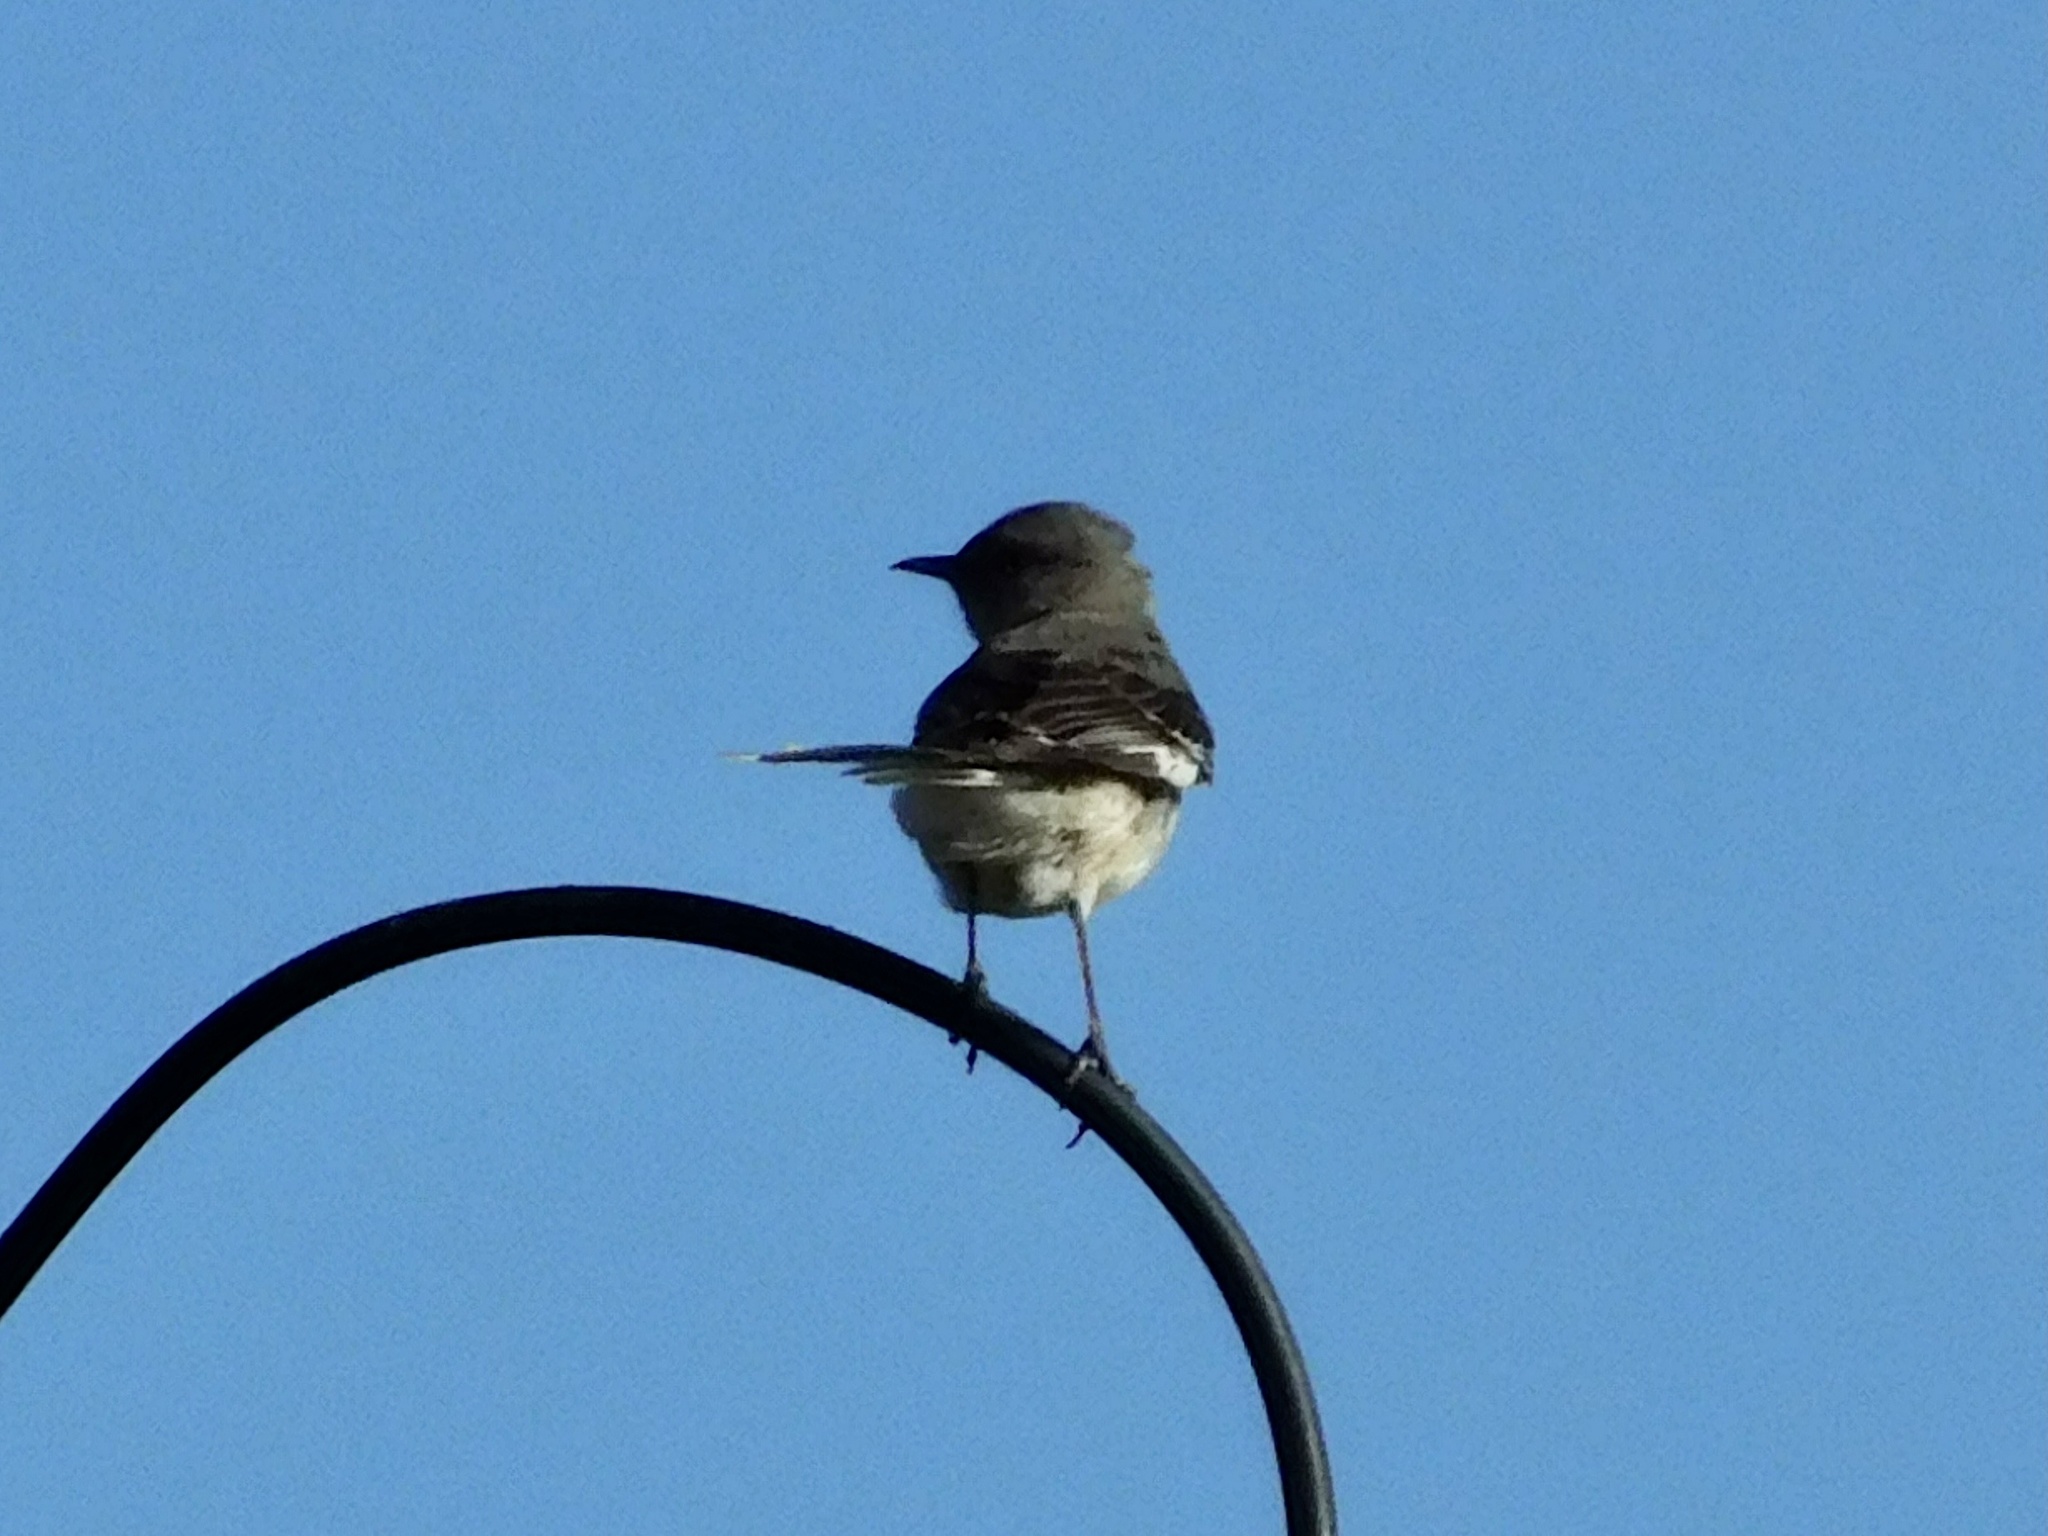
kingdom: Animalia
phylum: Chordata
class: Aves
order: Passeriformes
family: Mimidae
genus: Mimus
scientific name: Mimus polyglottos
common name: Northern mockingbird
